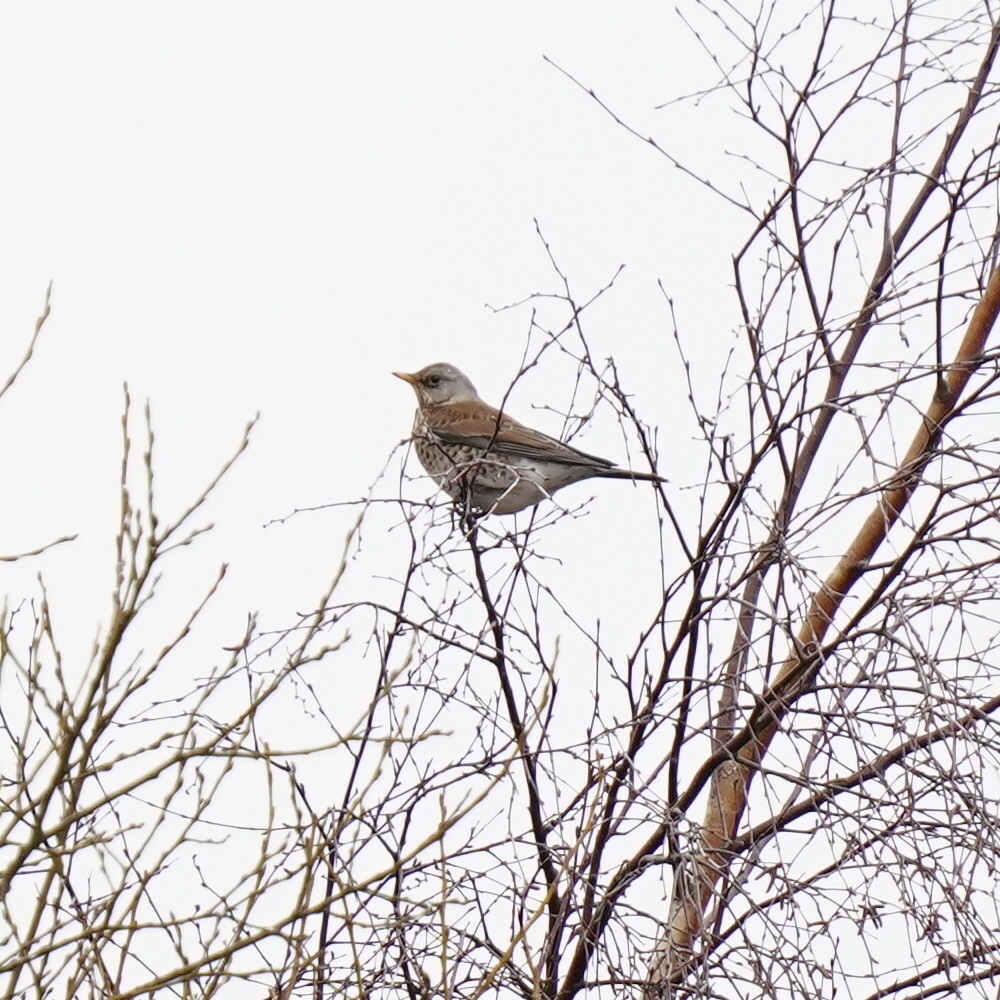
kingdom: Animalia
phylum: Chordata
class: Aves
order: Passeriformes
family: Turdidae
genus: Turdus
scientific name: Turdus pilaris
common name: Fieldfare
